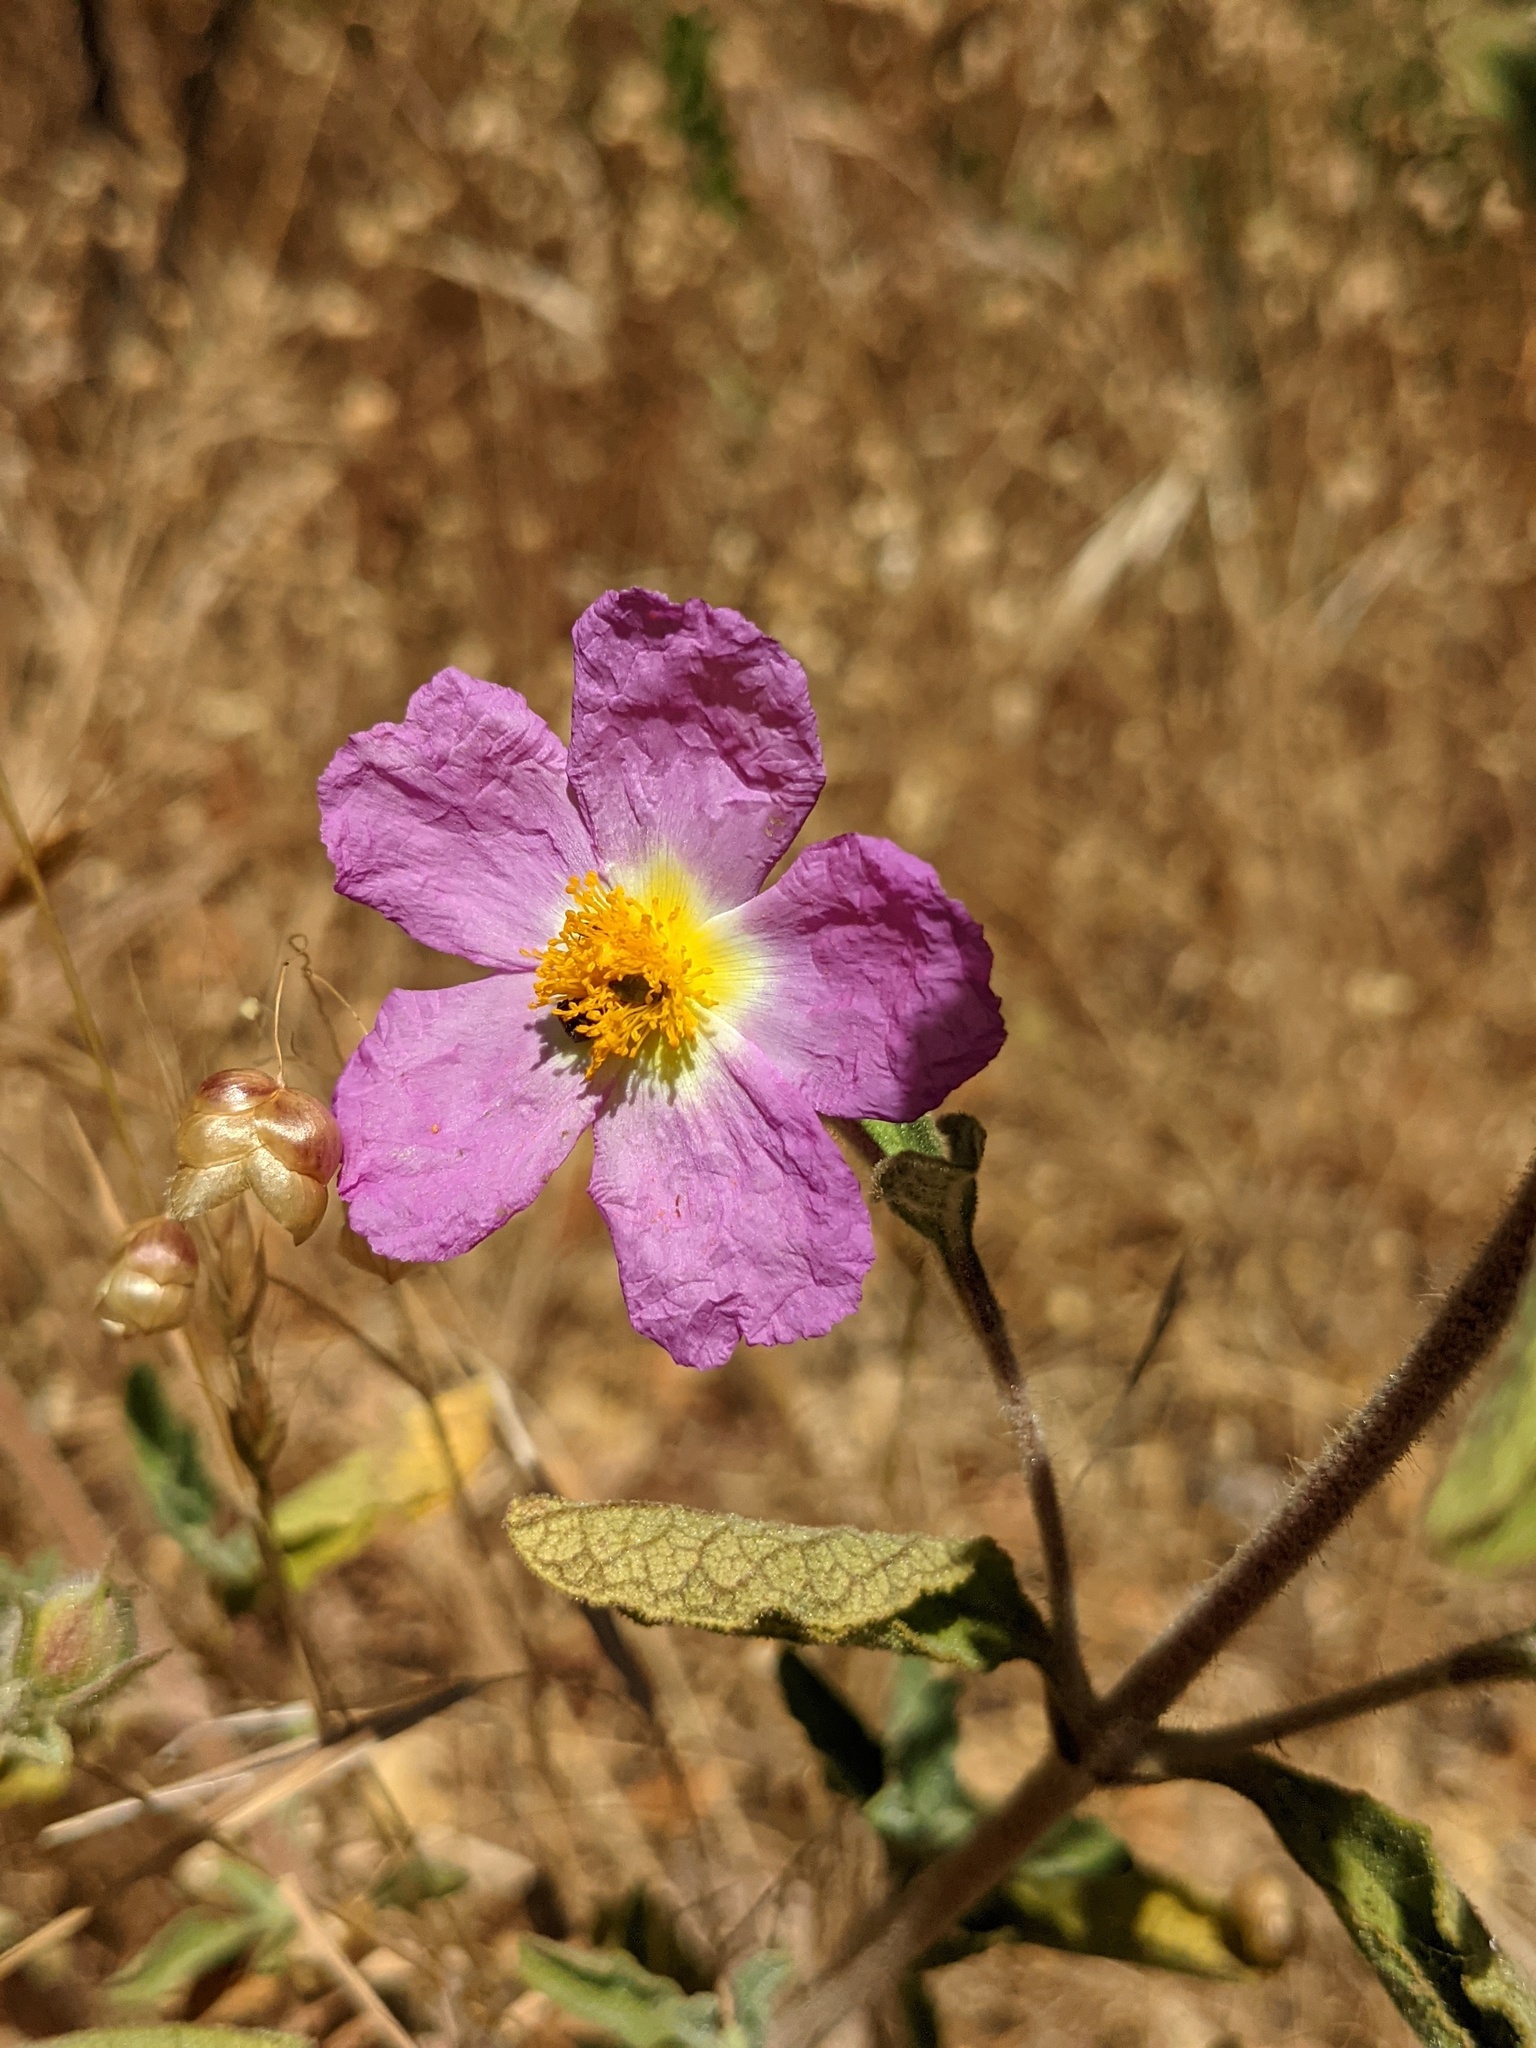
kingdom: Plantae
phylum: Tracheophyta
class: Magnoliopsida
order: Malvales
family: Cistaceae
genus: Cistus
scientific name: Cistus creticus
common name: Cretan rockrose
